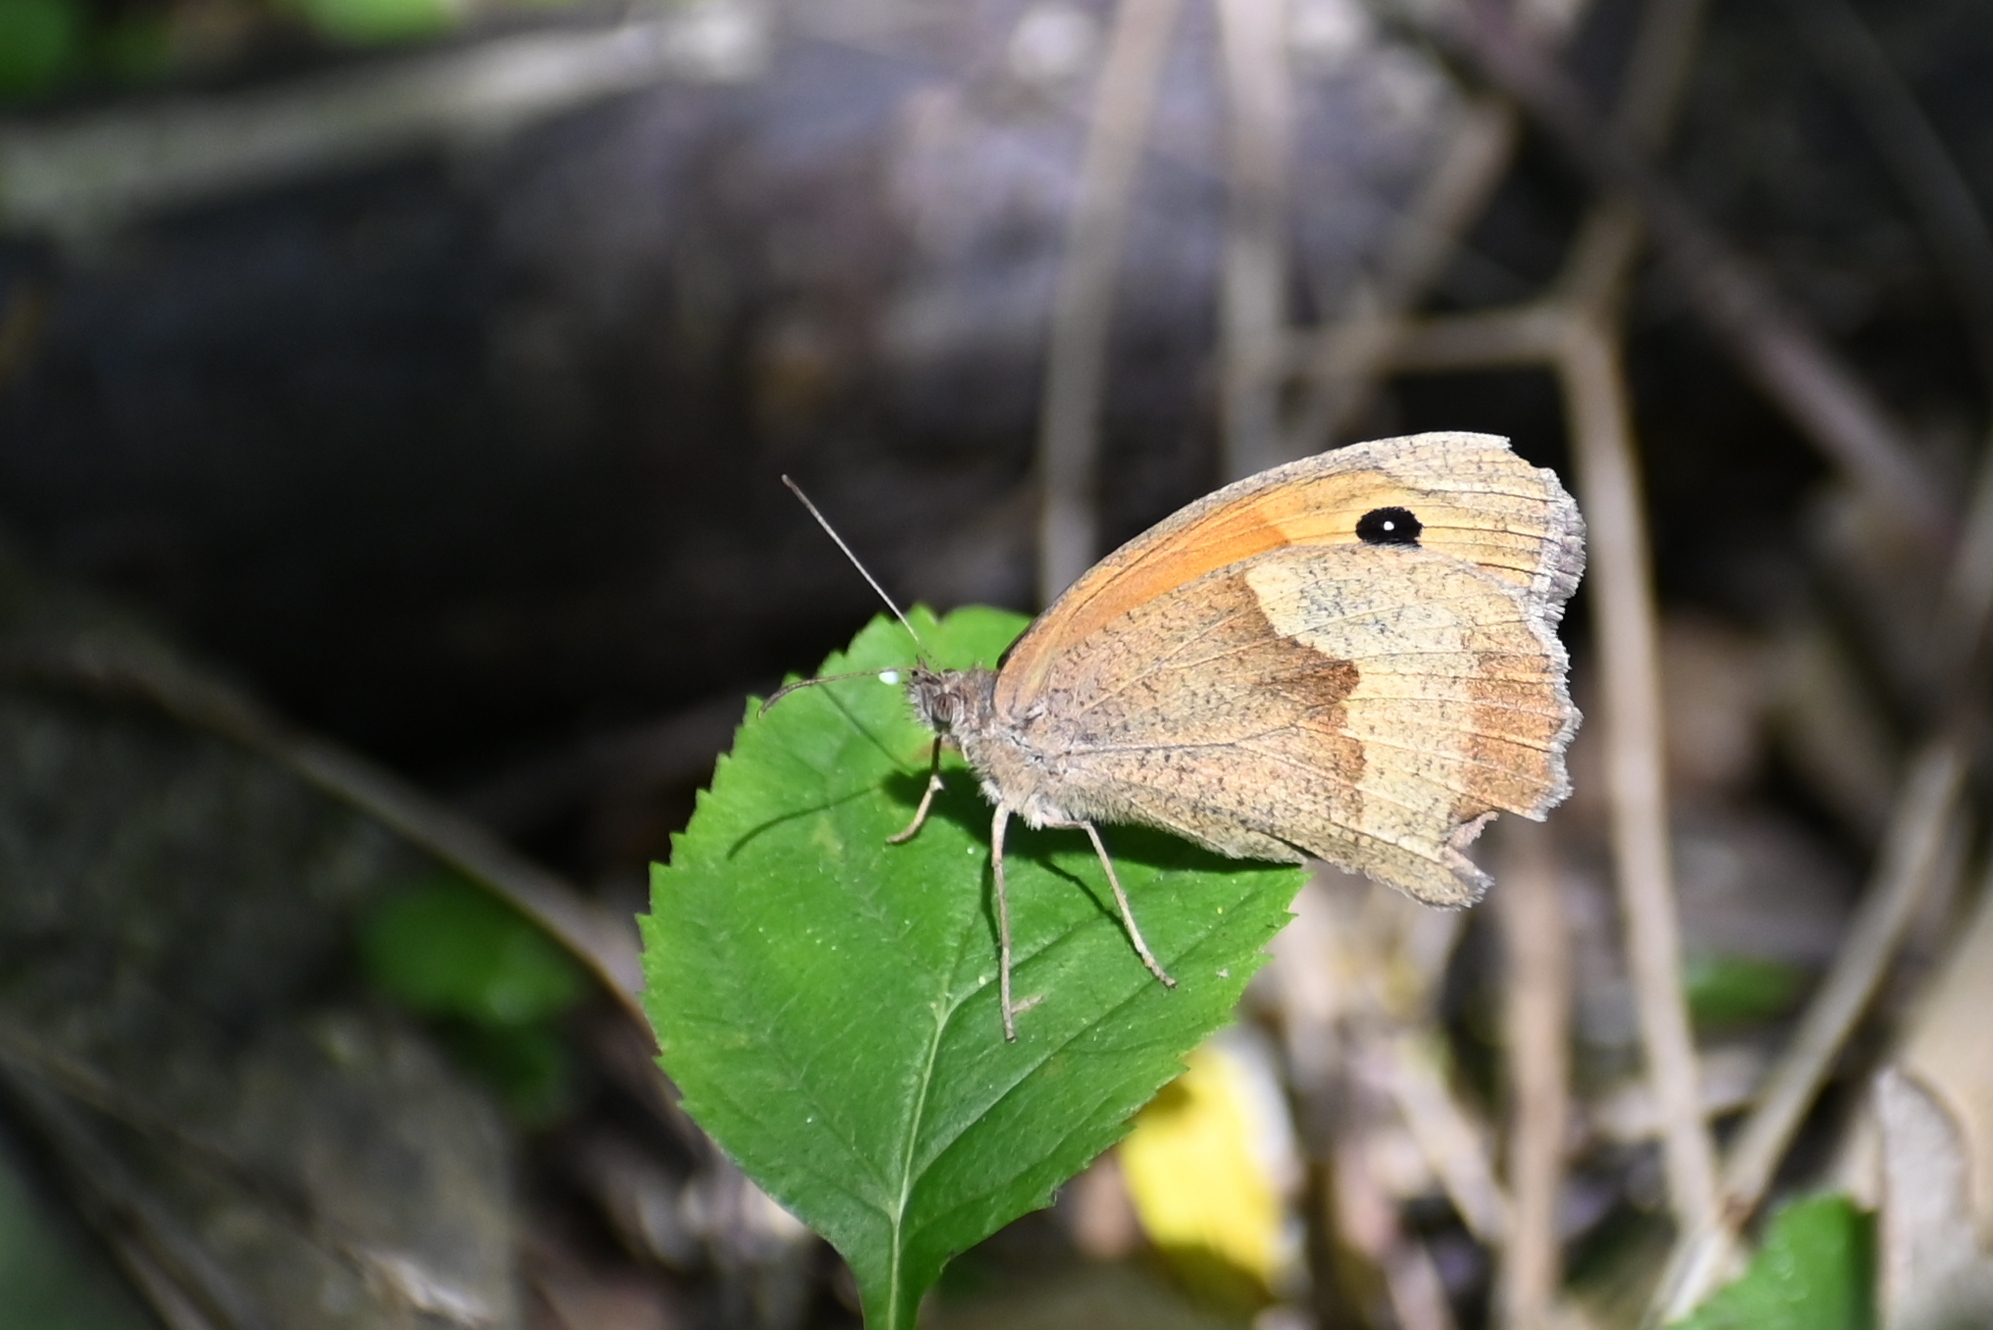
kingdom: Animalia
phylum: Arthropoda
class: Insecta
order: Lepidoptera
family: Nymphalidae
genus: Maniola
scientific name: Maniola jurtina
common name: Meadow brown
